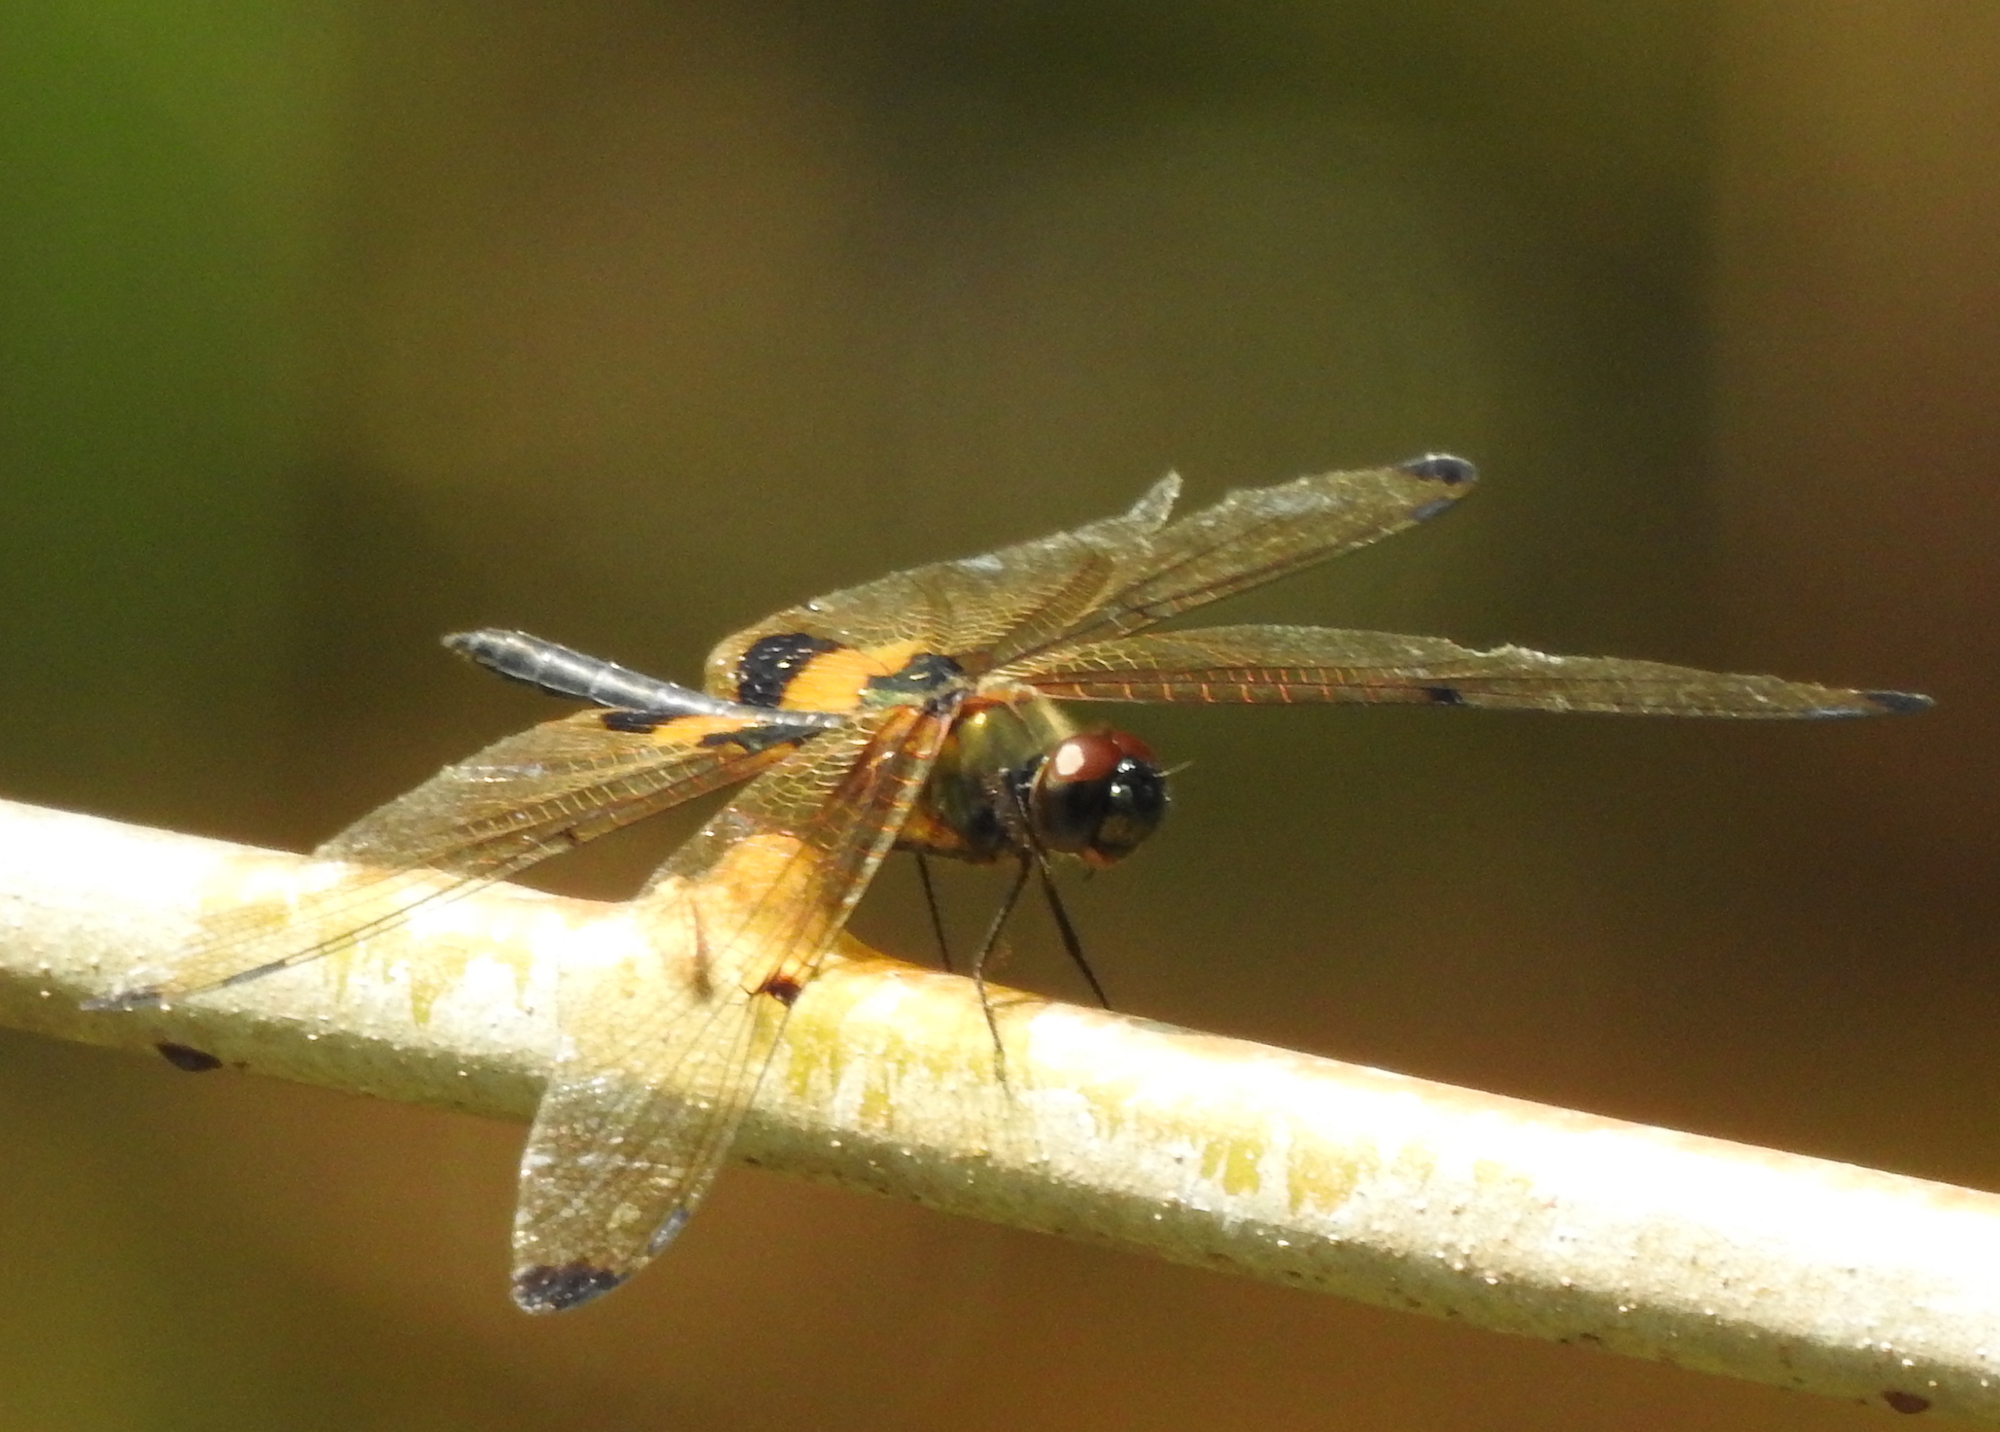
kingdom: Animalia
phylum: Arthropoda
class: Insecta
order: Odonata
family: Libellulidae
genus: Rhyothemis
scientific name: Rhyothemis phyllis
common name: Yellow-barred flutterer
